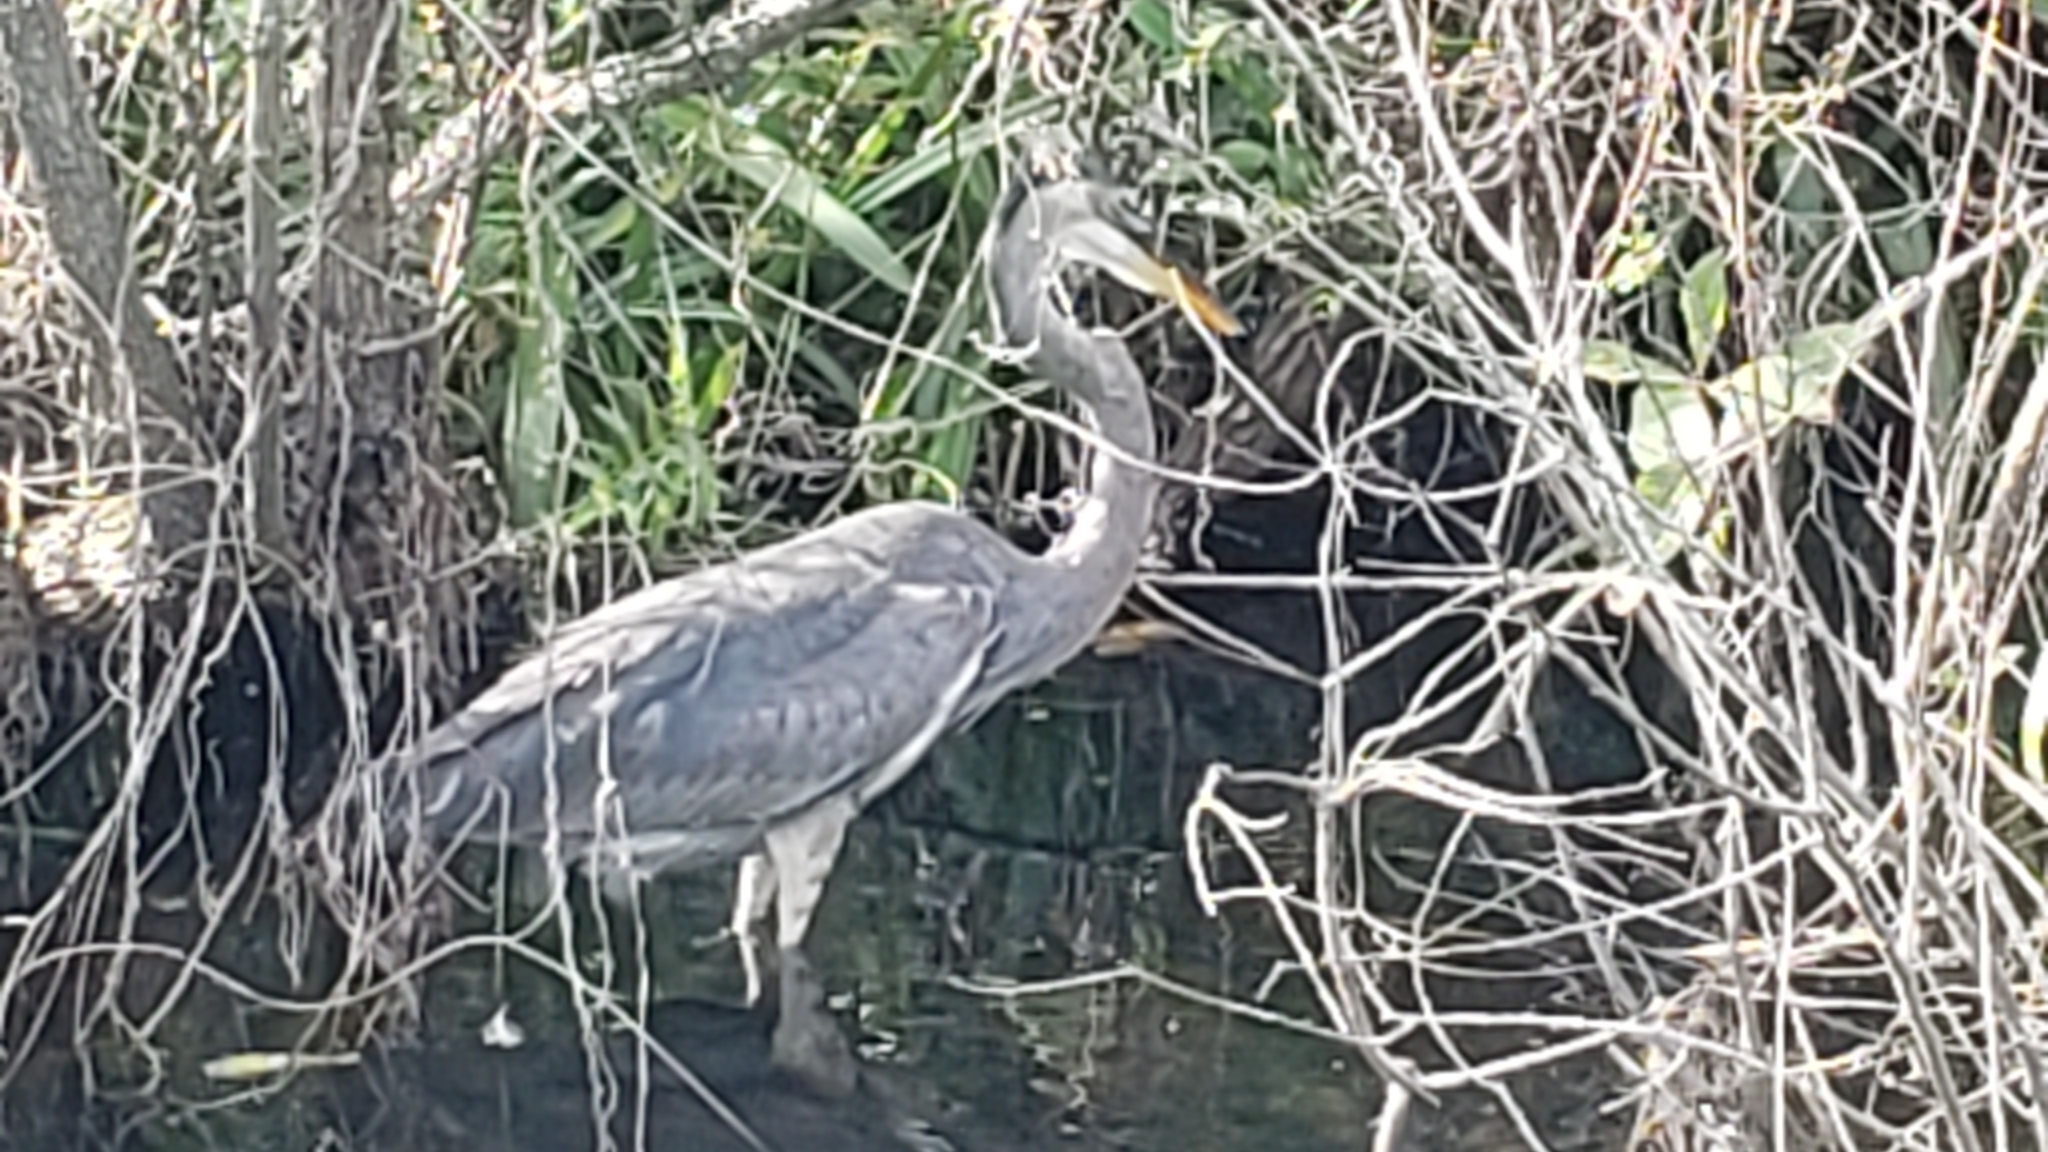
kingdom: Animalia
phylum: Chordata
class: Aves
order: Pelecaniformes
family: Ardeidae
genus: Ardea
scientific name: Ardea herodias
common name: Great blue heron
